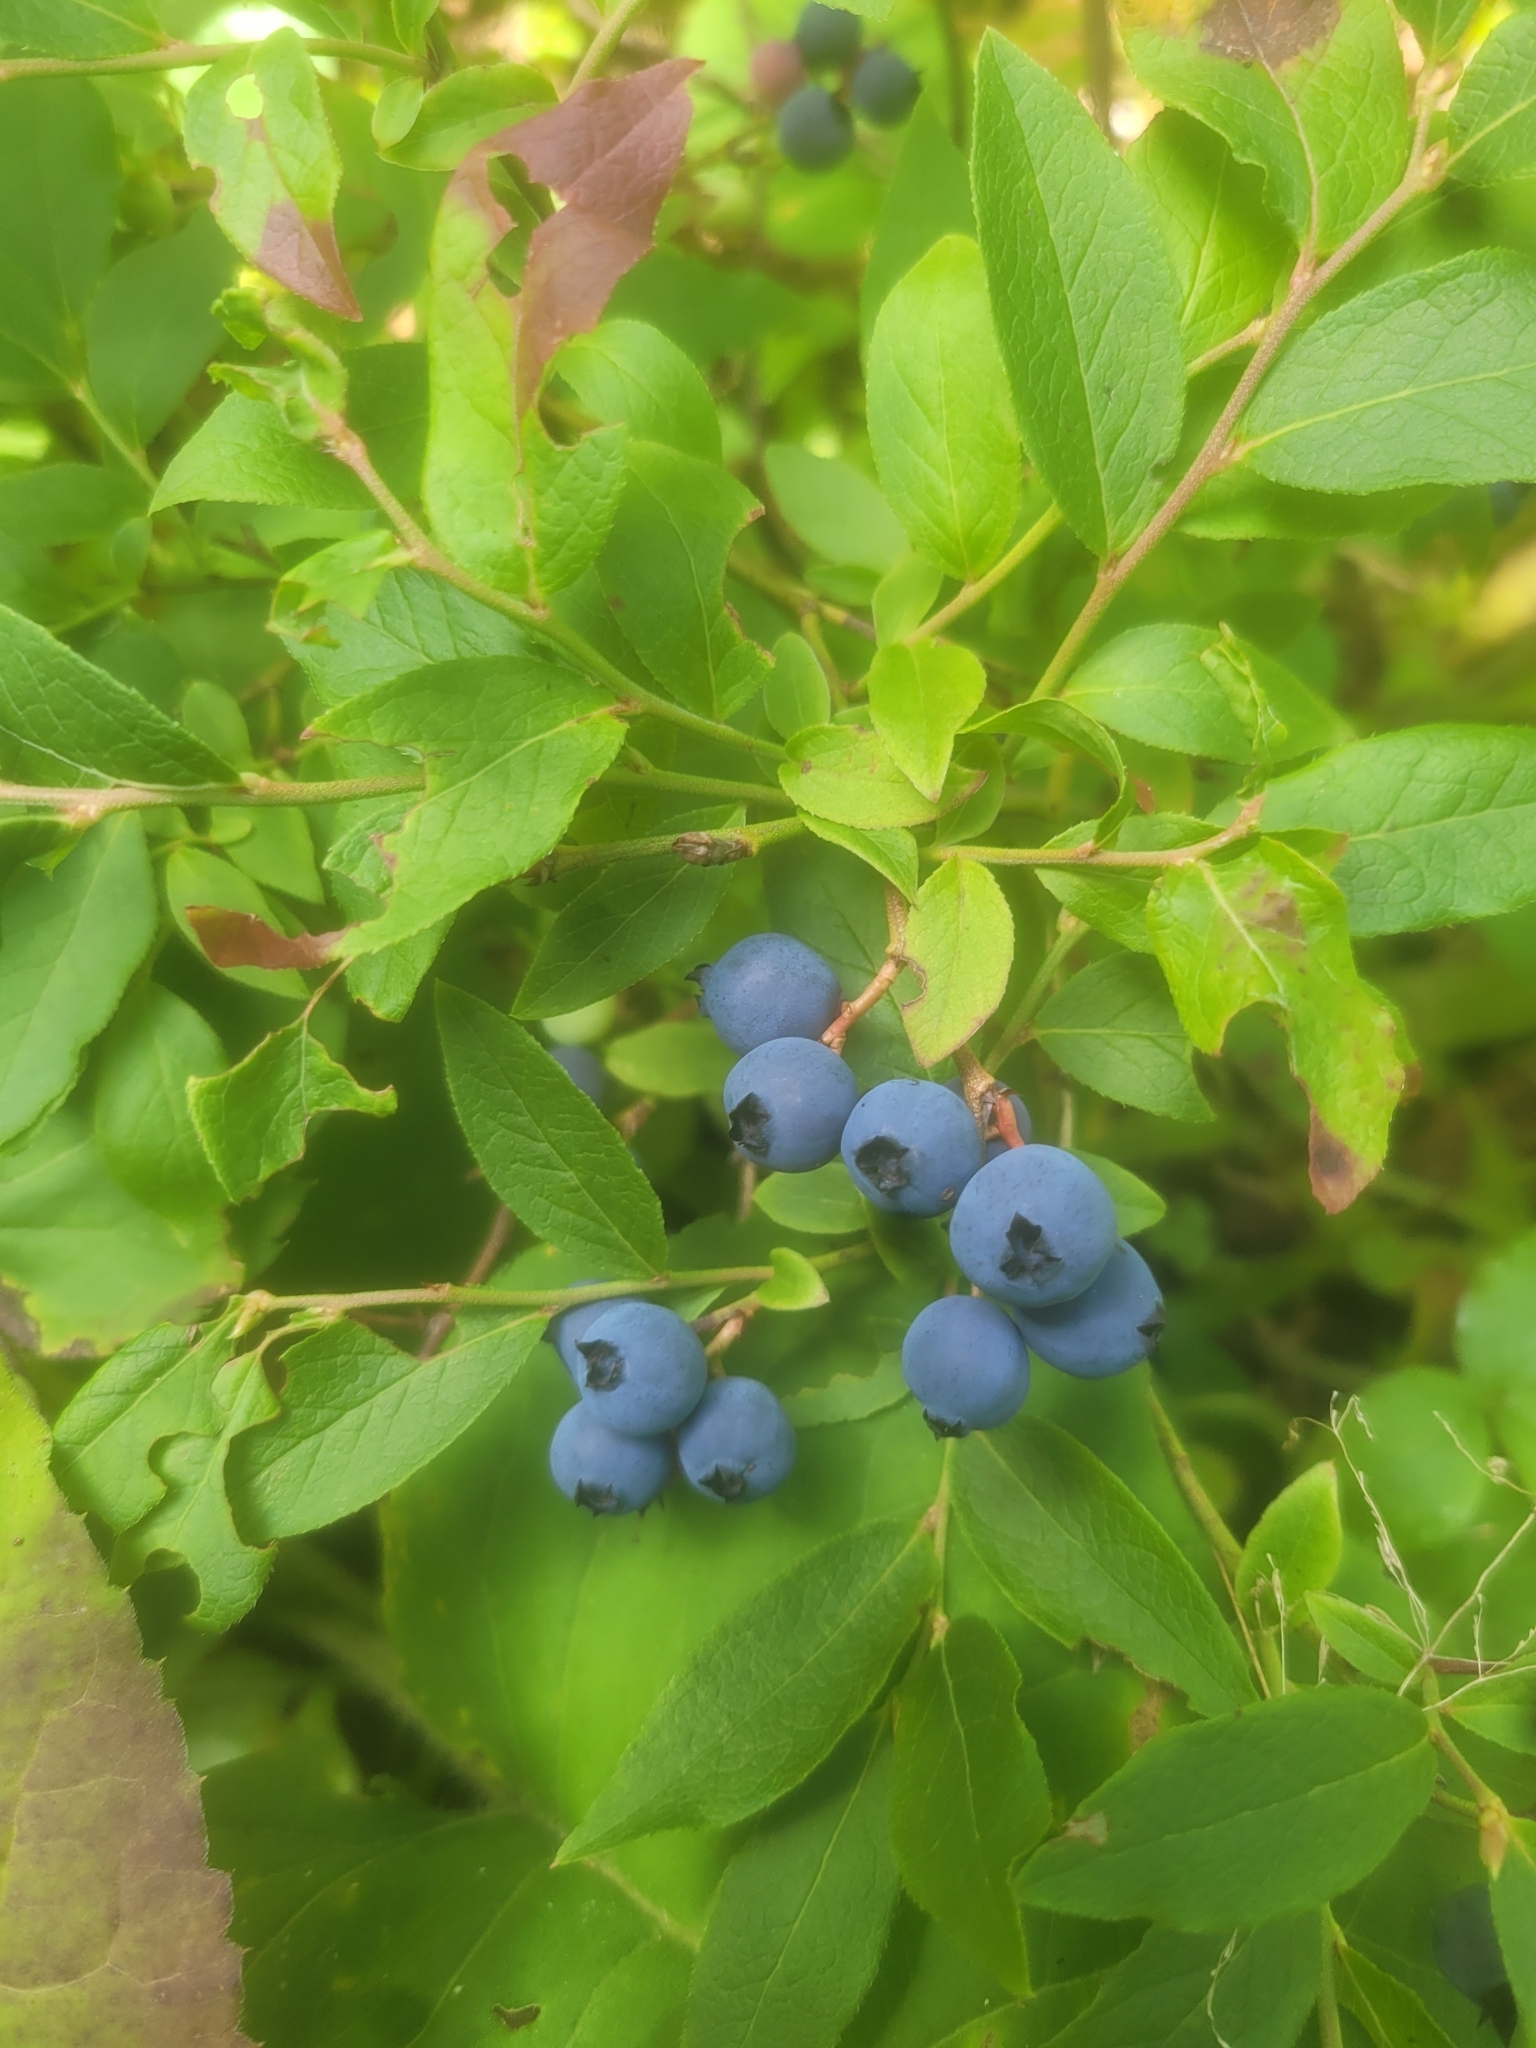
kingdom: Plantae
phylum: Tracheophyta
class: Magnoliopsida
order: Ericales
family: Ericaceae
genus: Vaccinium
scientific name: Vaccinium angustifolium
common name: Early lowbush blueberry
